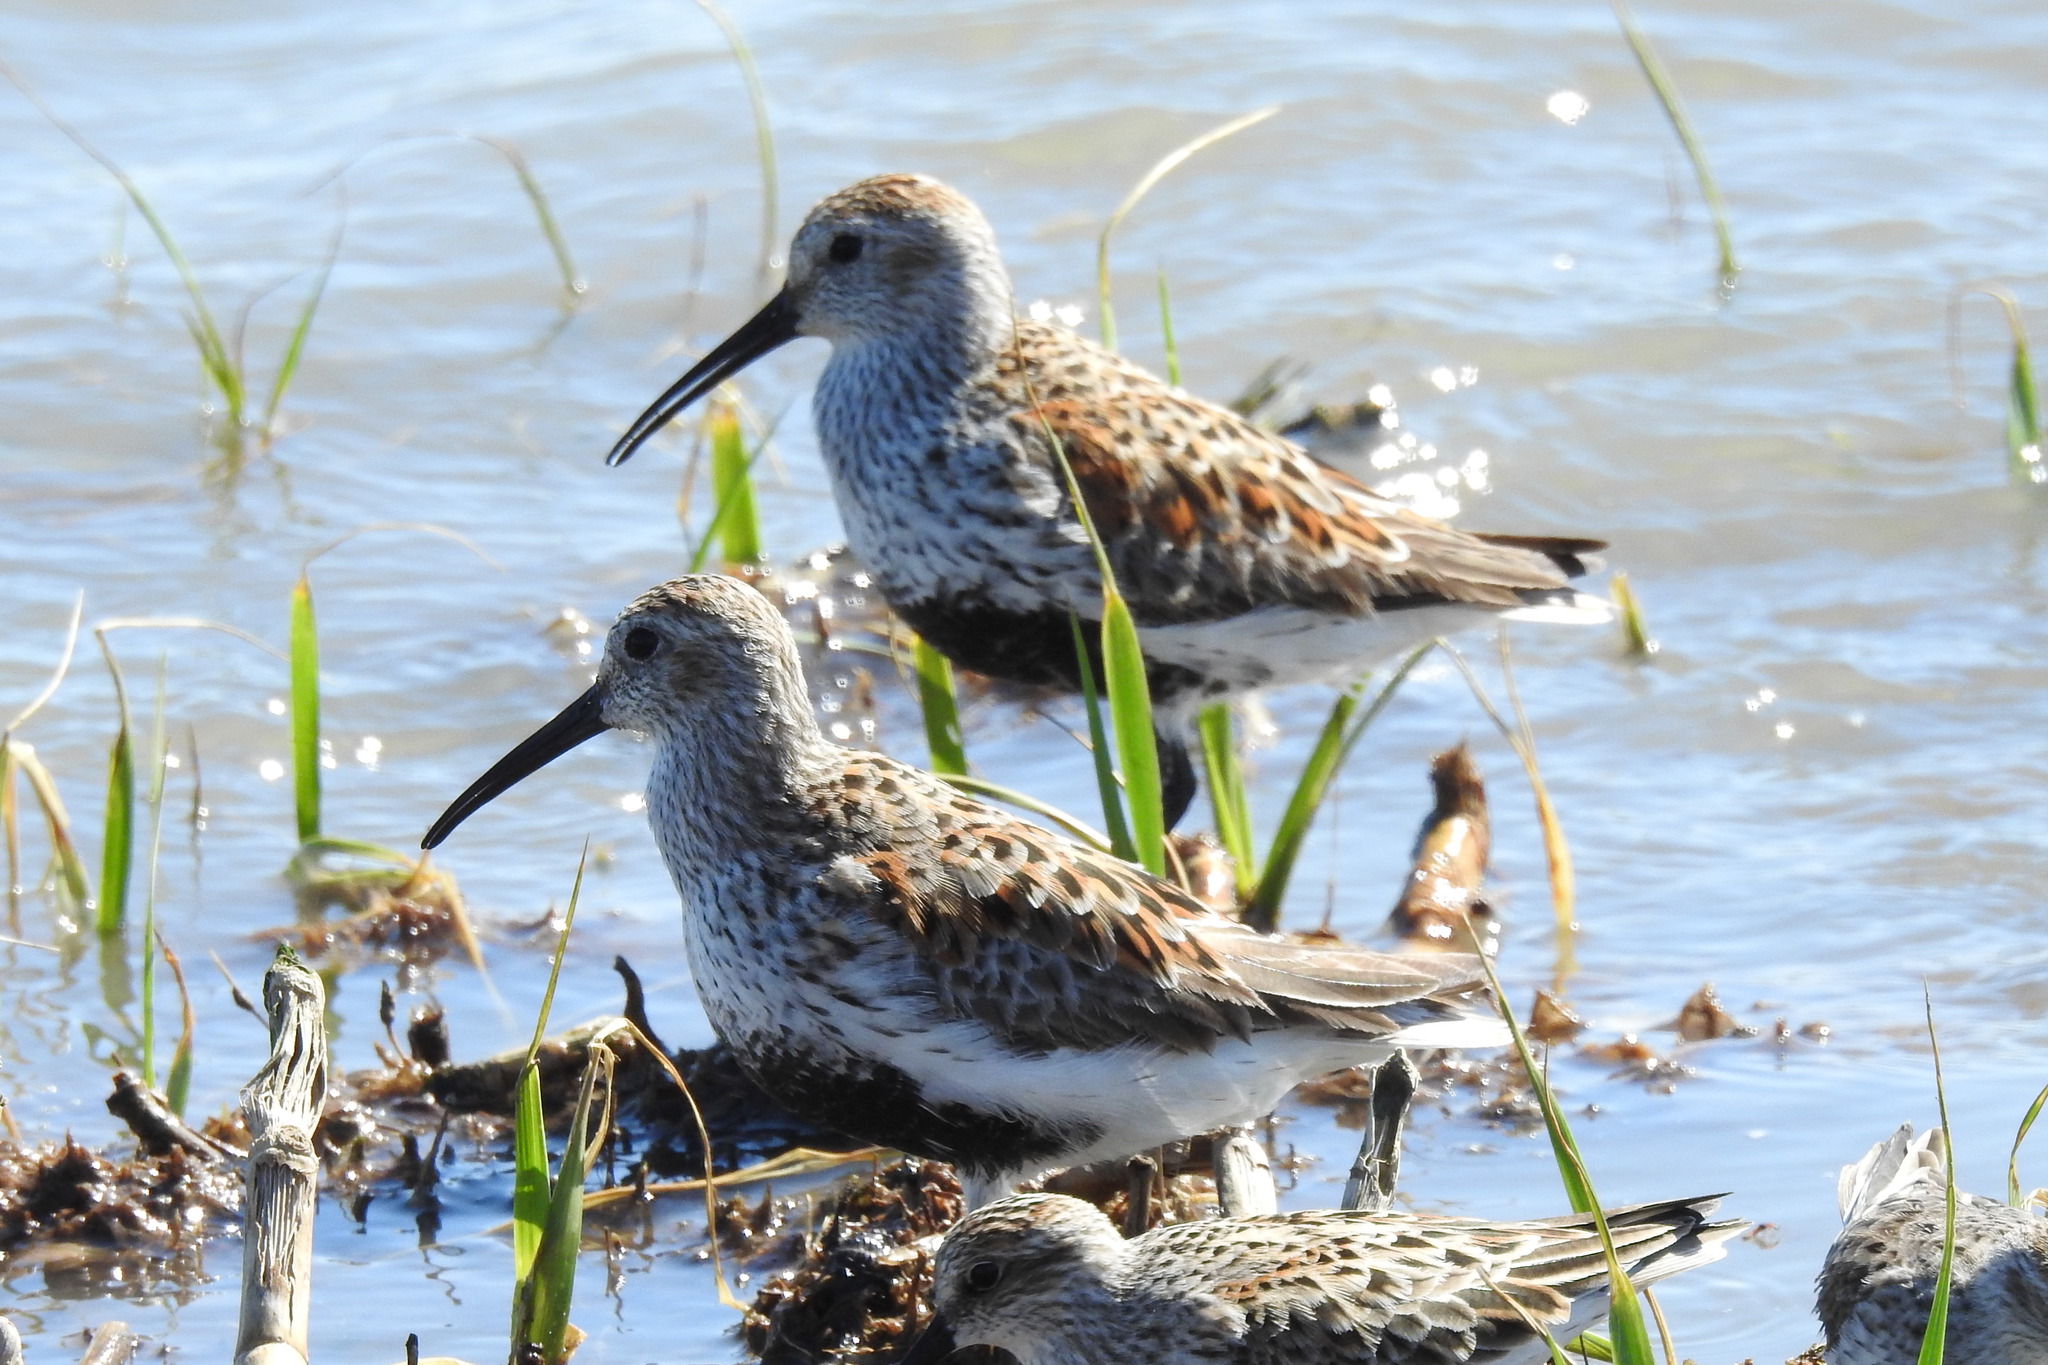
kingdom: Animalia
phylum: Chordata
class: Aves
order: Charadriiformes
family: Scolopacidae
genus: Calidris
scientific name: Calidris alpina
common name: Dunlin
